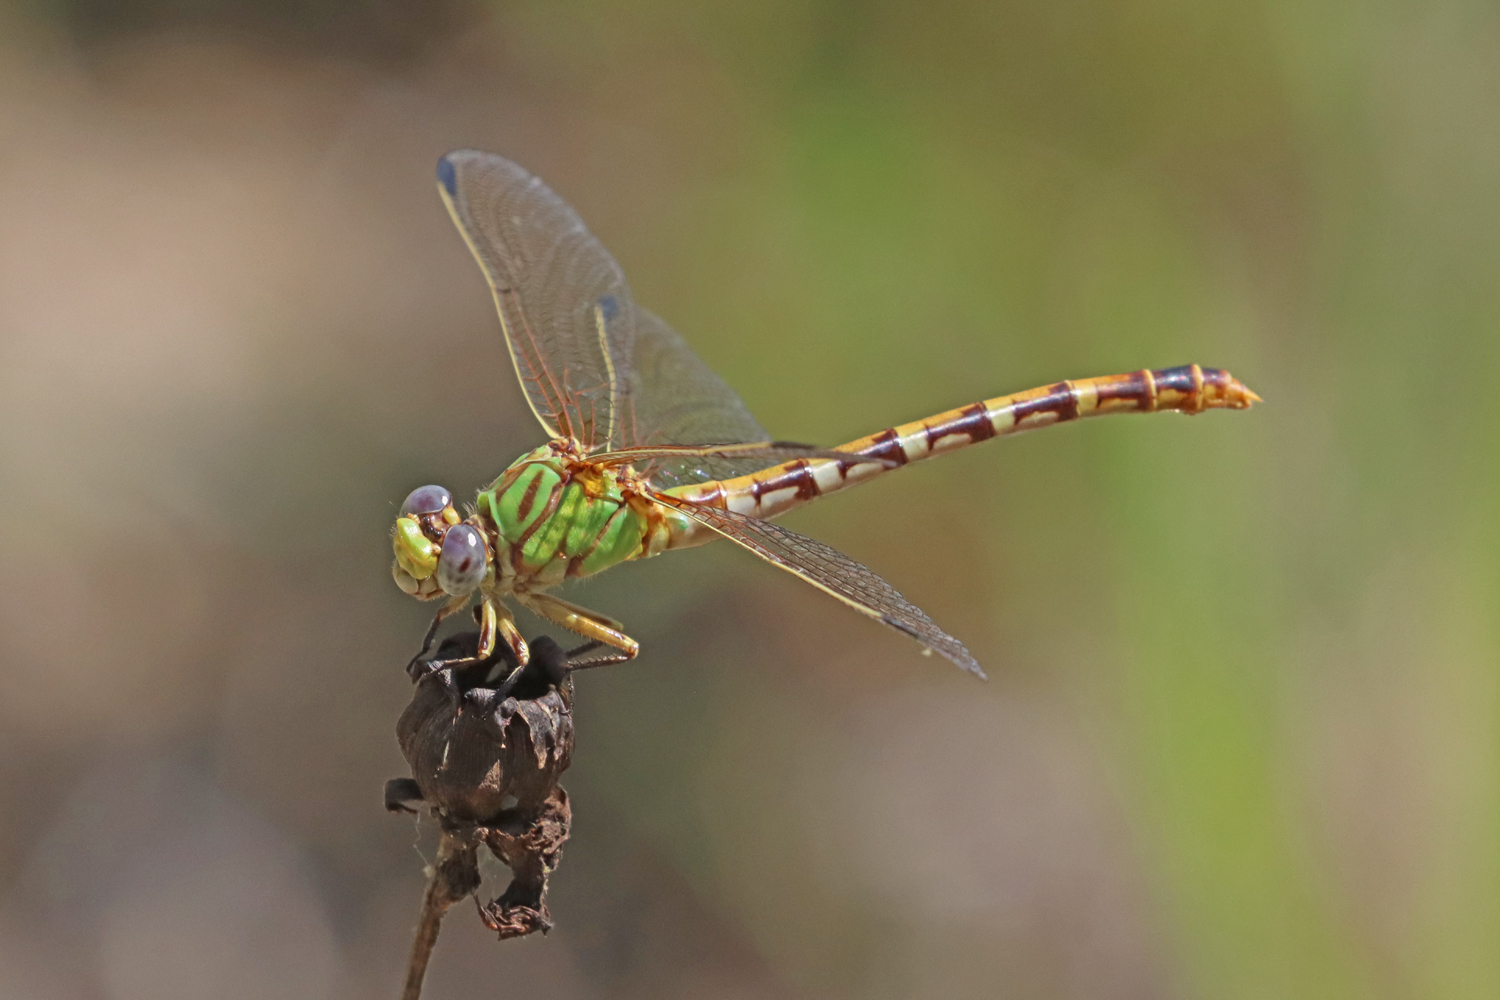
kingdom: Animalia
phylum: Arthropoda
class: Insecta
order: Odonata
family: Gomphidae
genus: Erpetogomphus
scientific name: Erpetogomphus designatus
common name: Eastern ringtail
